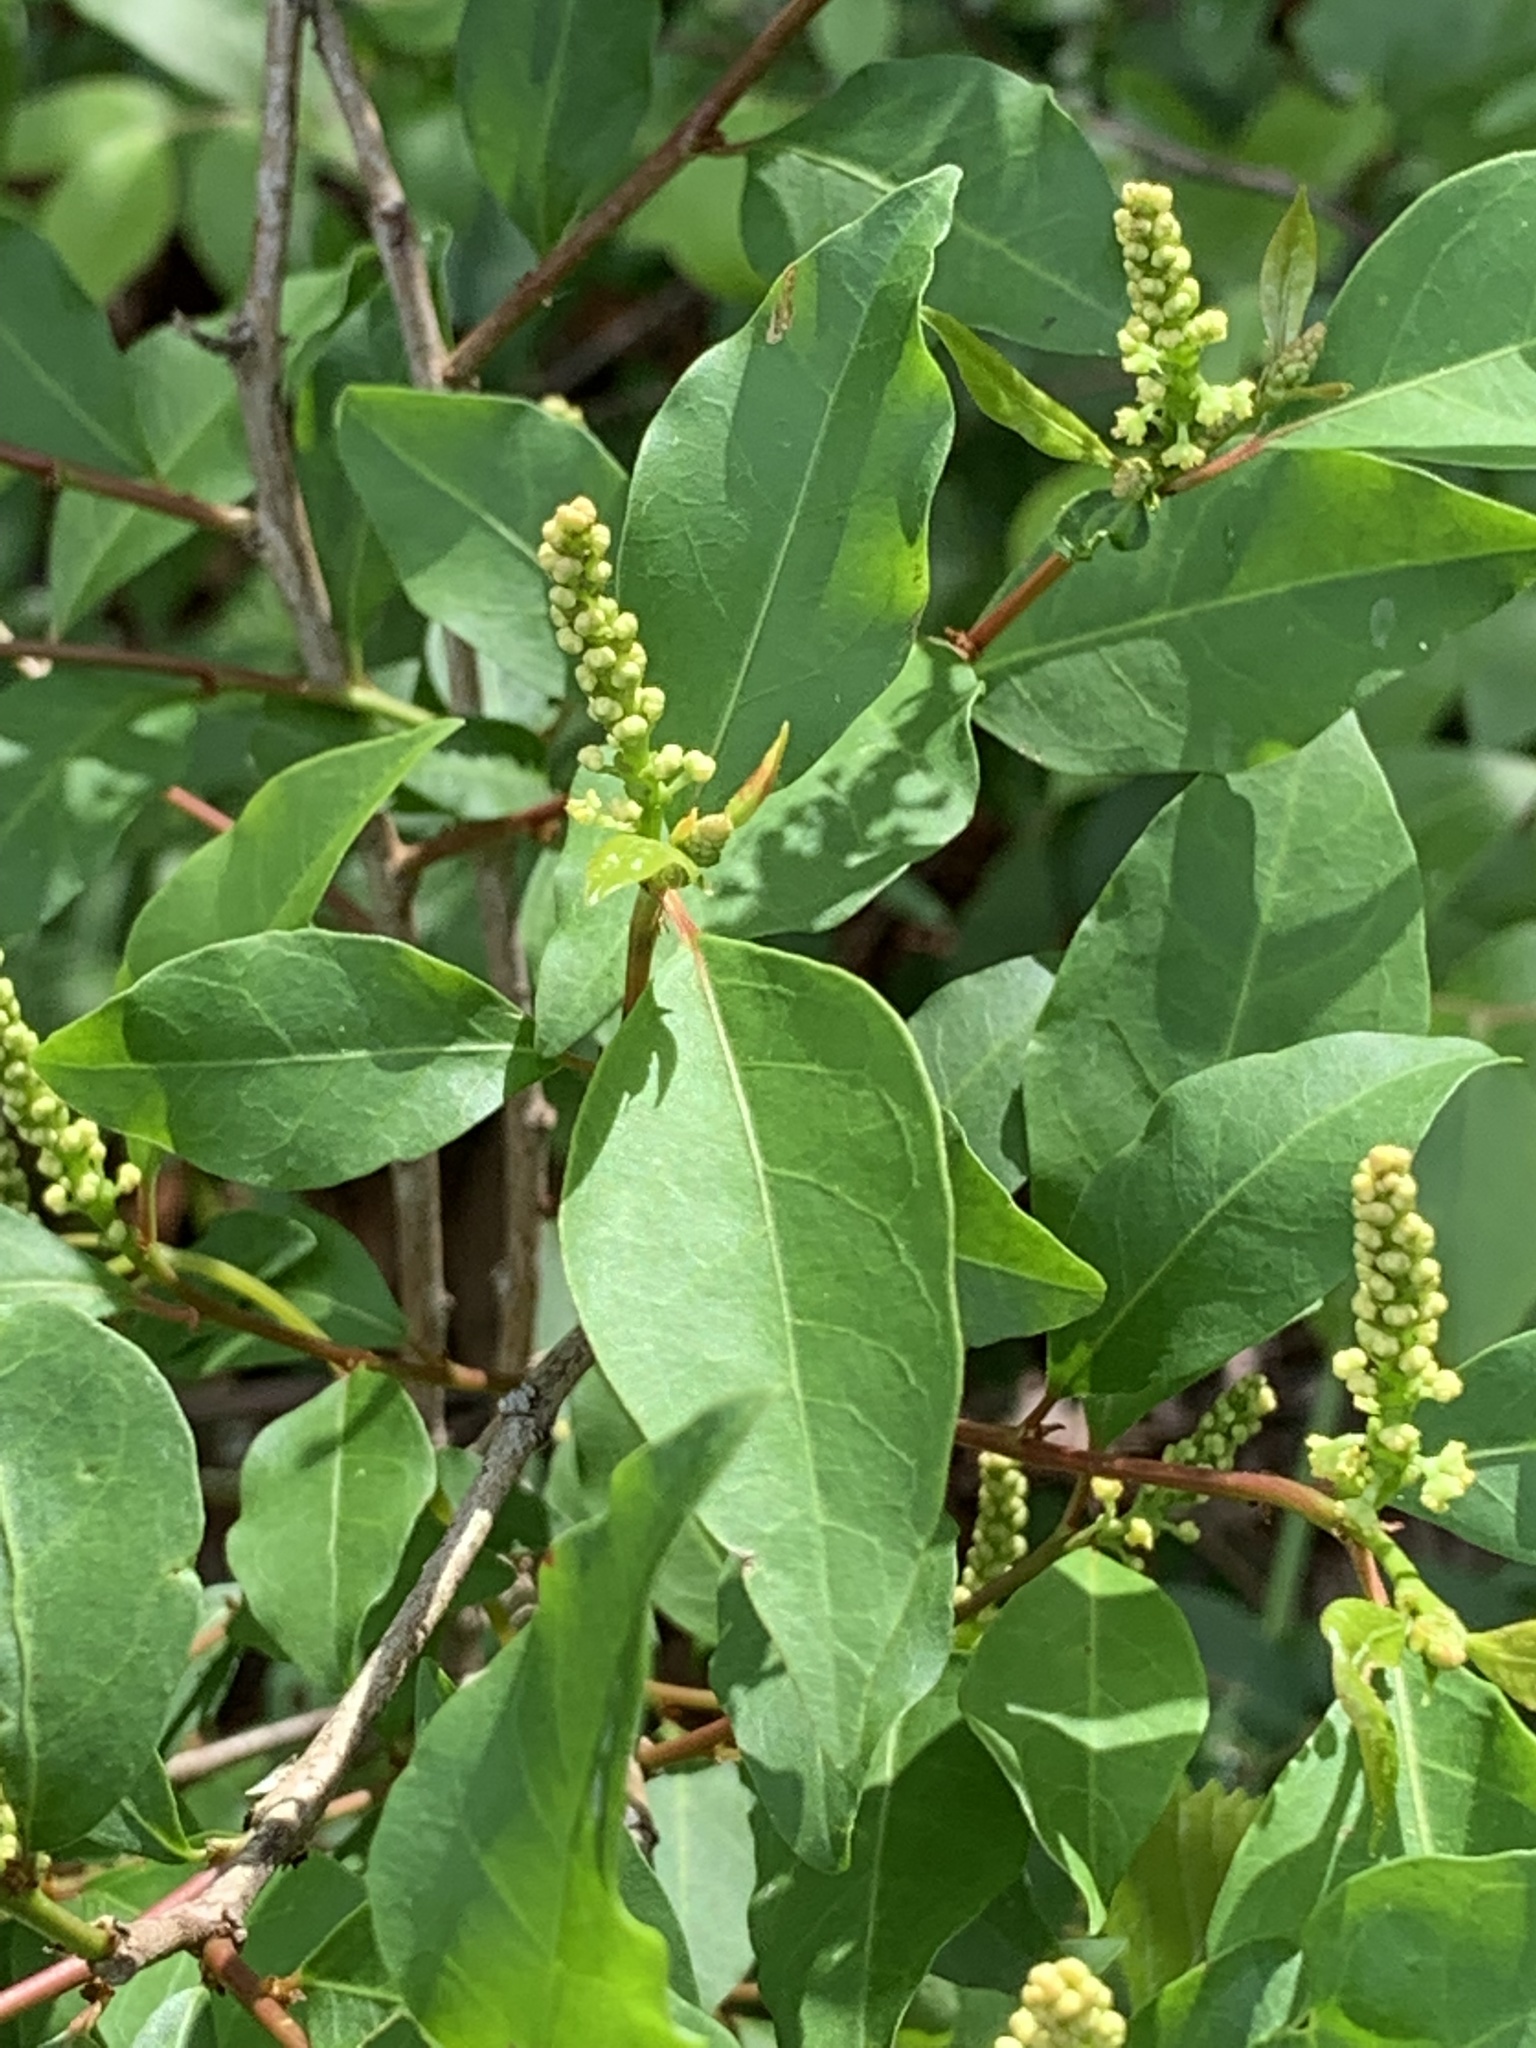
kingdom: Plantae
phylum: Tracheophyta
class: Magnoliopsida
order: Malpighiales
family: Euphorbiaceae
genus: Ditrysinia
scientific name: Ditrysinia fruticosa
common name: Gulf sebastian-bush
